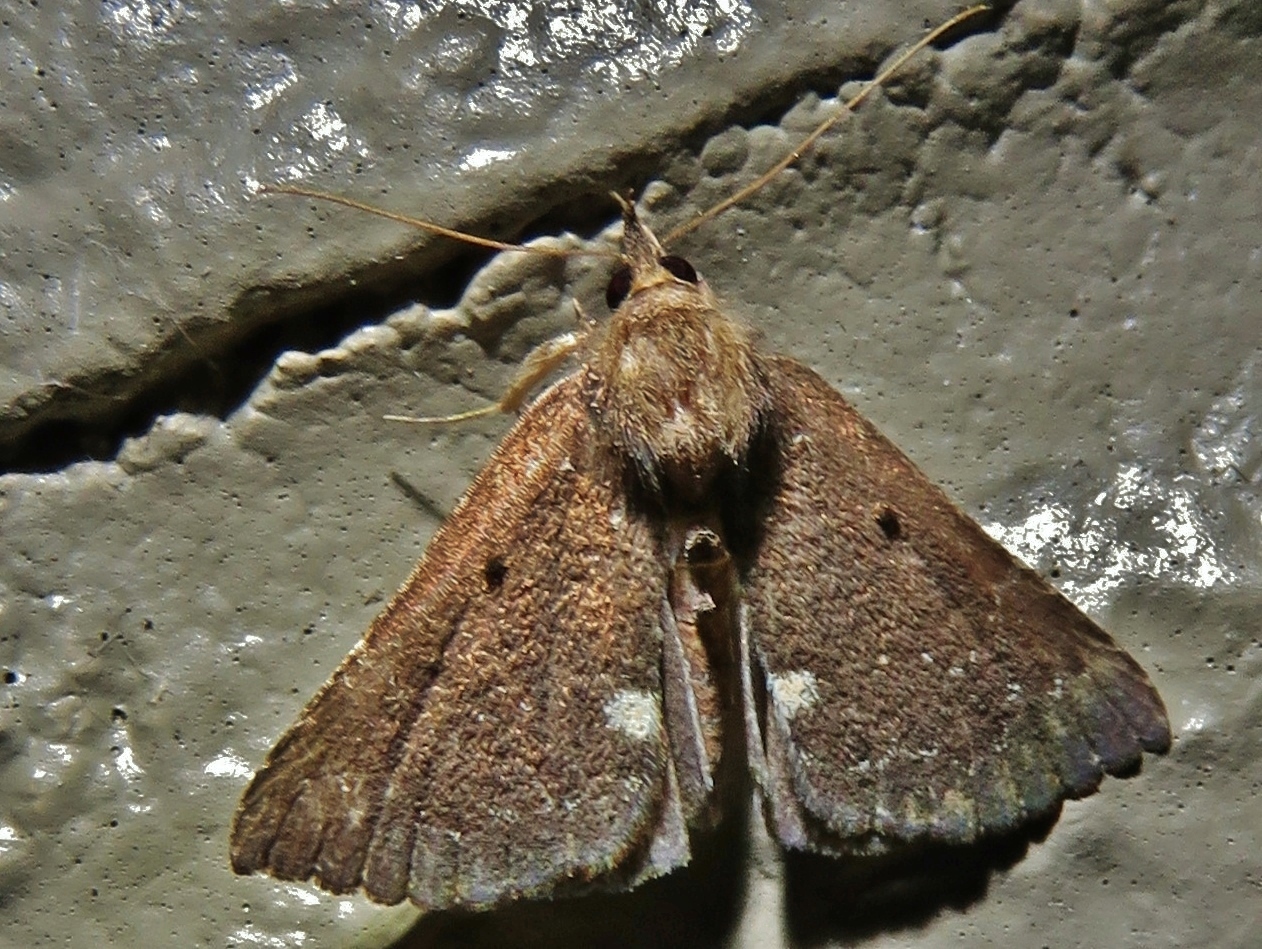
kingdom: Animalia
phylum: Arthropoda
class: Insecta
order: Lepidoptera
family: Erebidae
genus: Hypena
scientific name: Hypena bijugalis
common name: Dimorphic bomolocha moth
